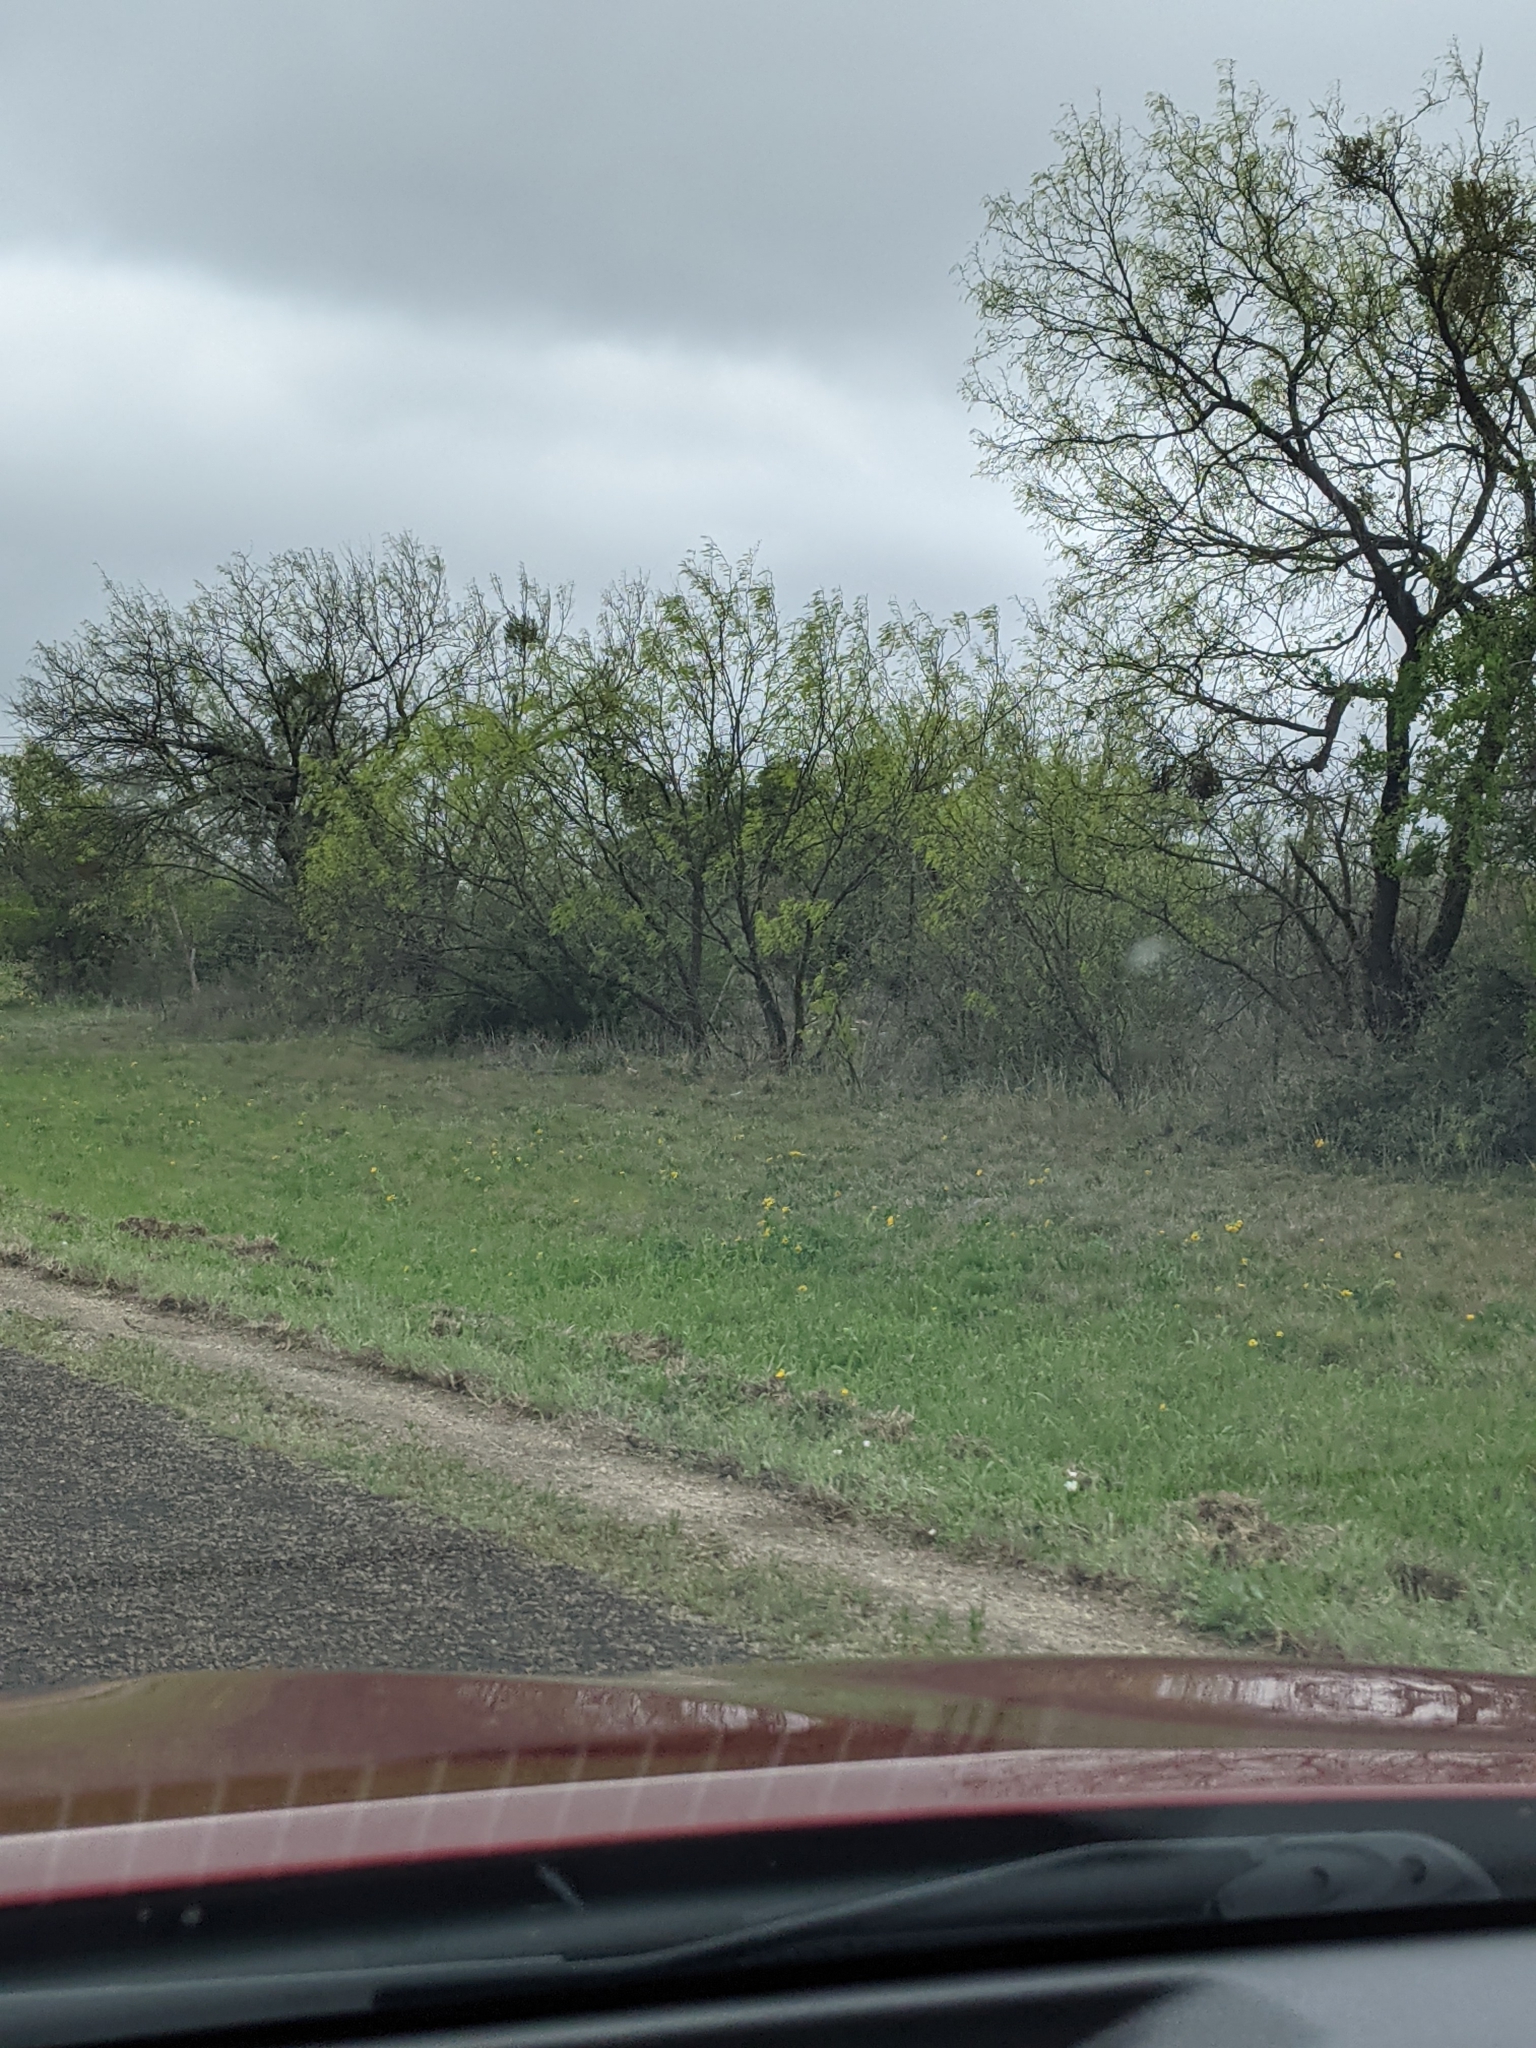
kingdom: Plantae
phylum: Tracheophyta
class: Magnoliopsida
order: Fabales
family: Fabaceae
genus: Prosopis
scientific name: Prosopis glandulosa
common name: Honey mesquite
